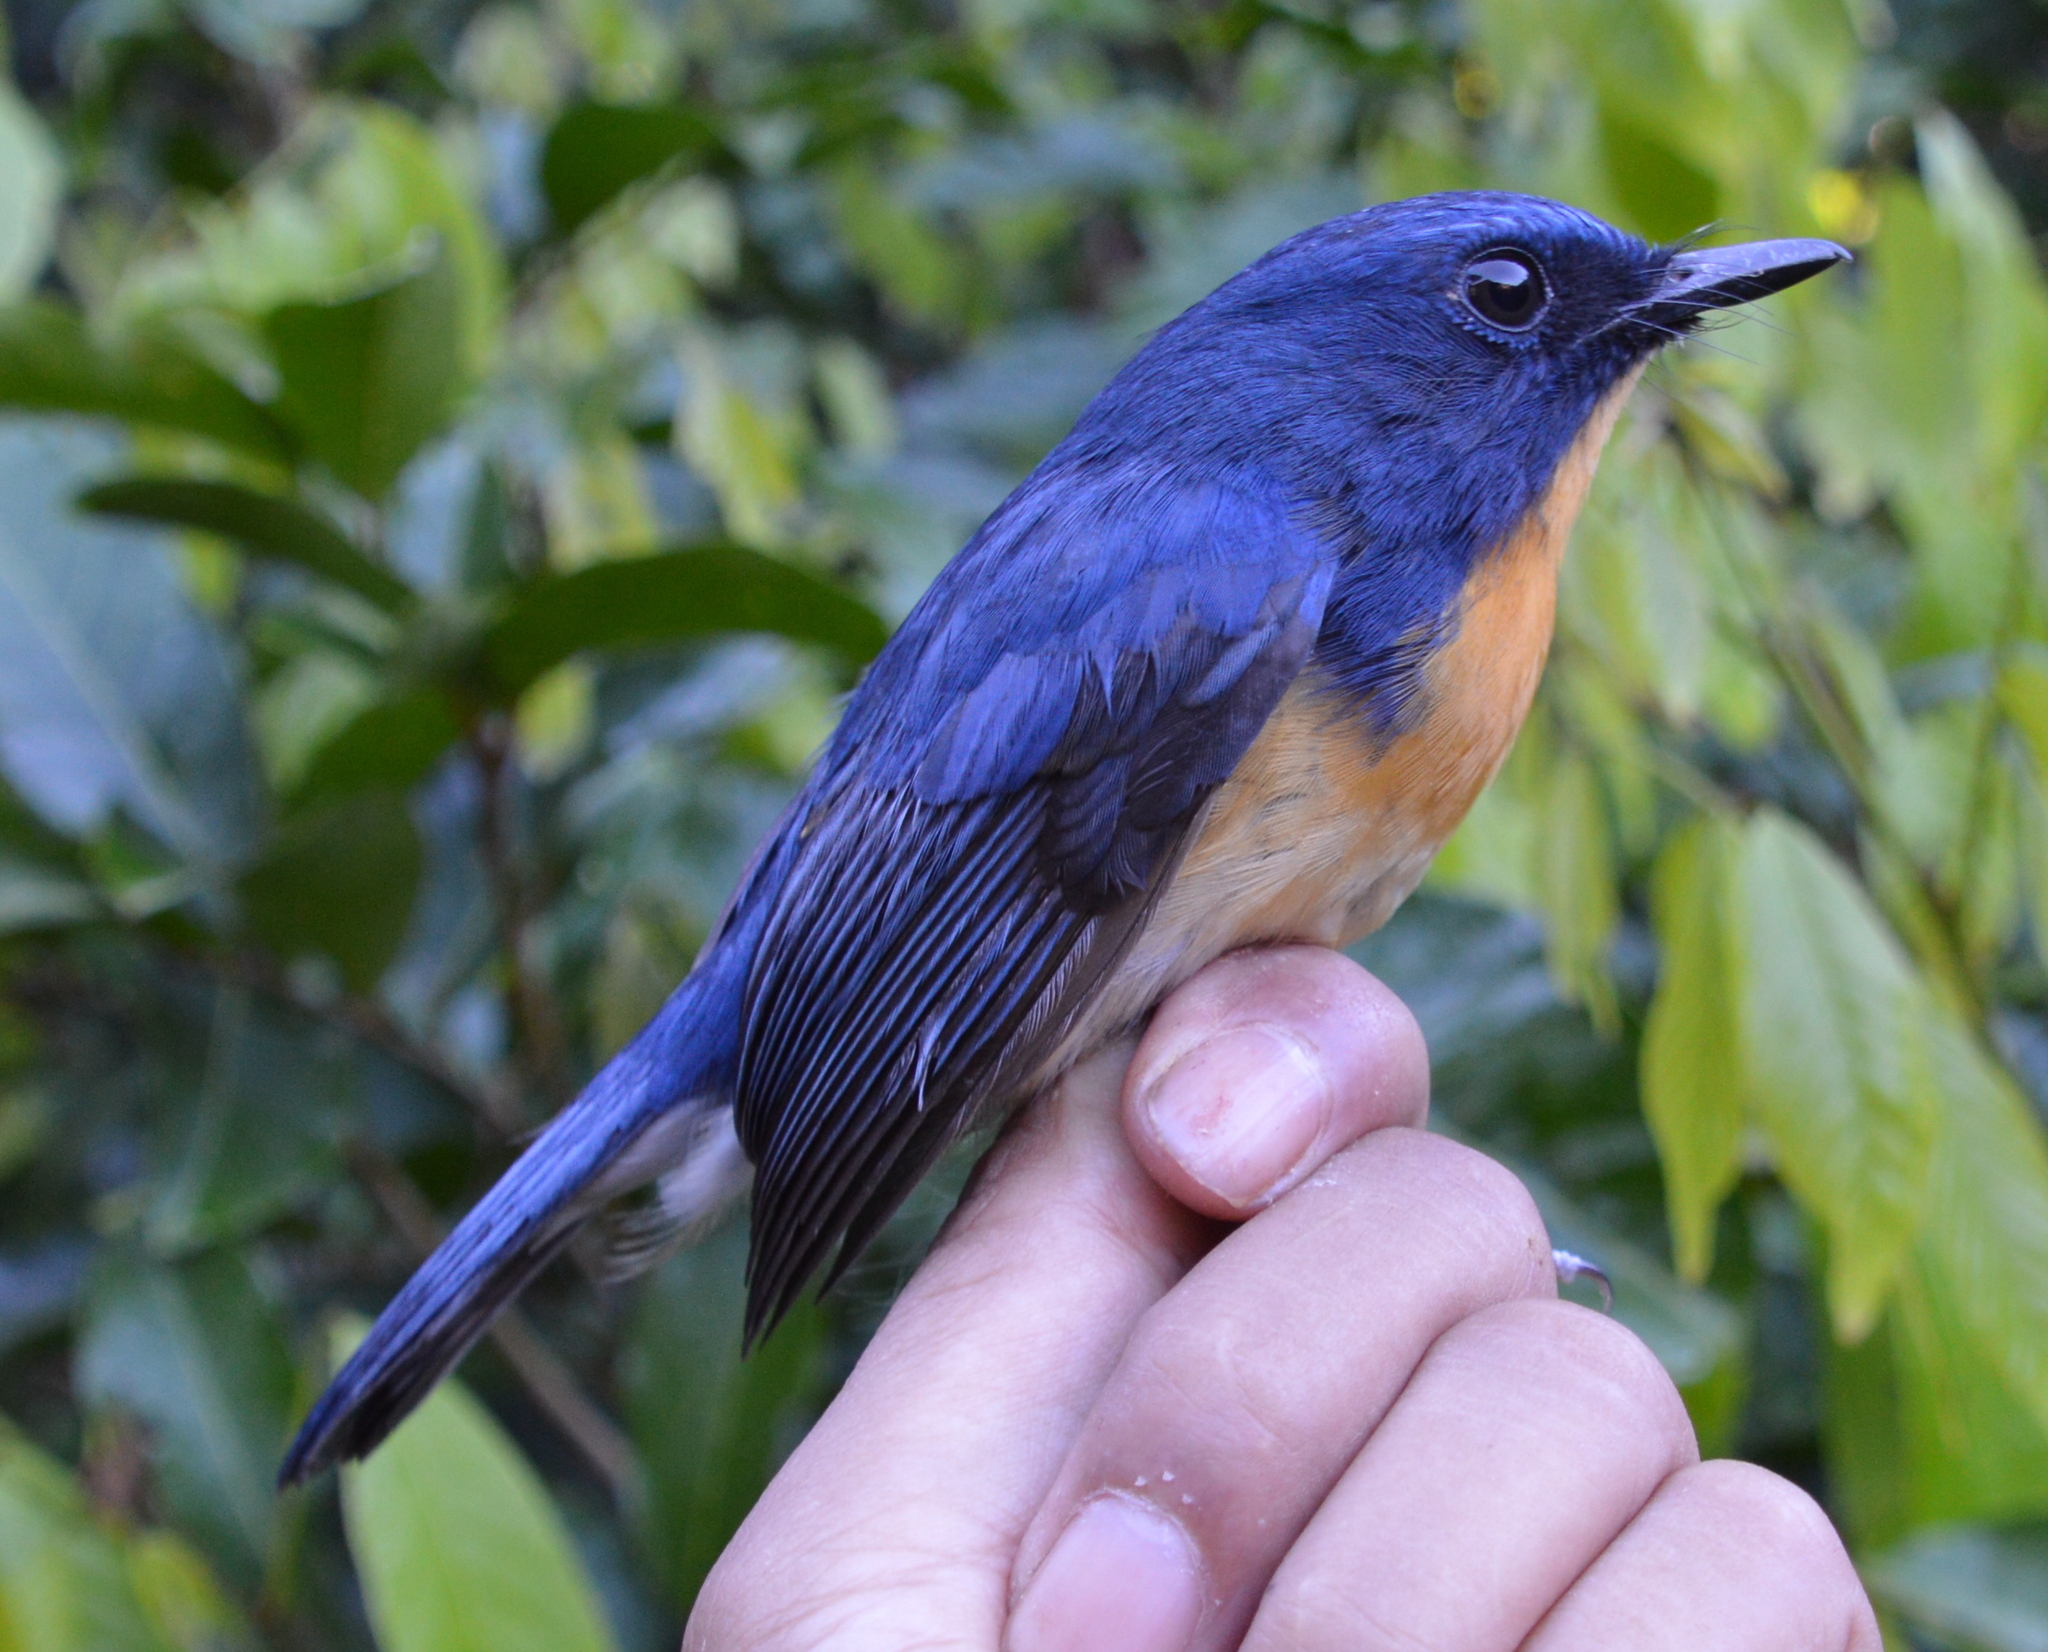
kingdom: Animalia
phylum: Chordata
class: Aves
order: Passeriformes
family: Muscicapidae
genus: Cyornis
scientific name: Cyornis kadayangensis
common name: Meratus blue flycatcher
